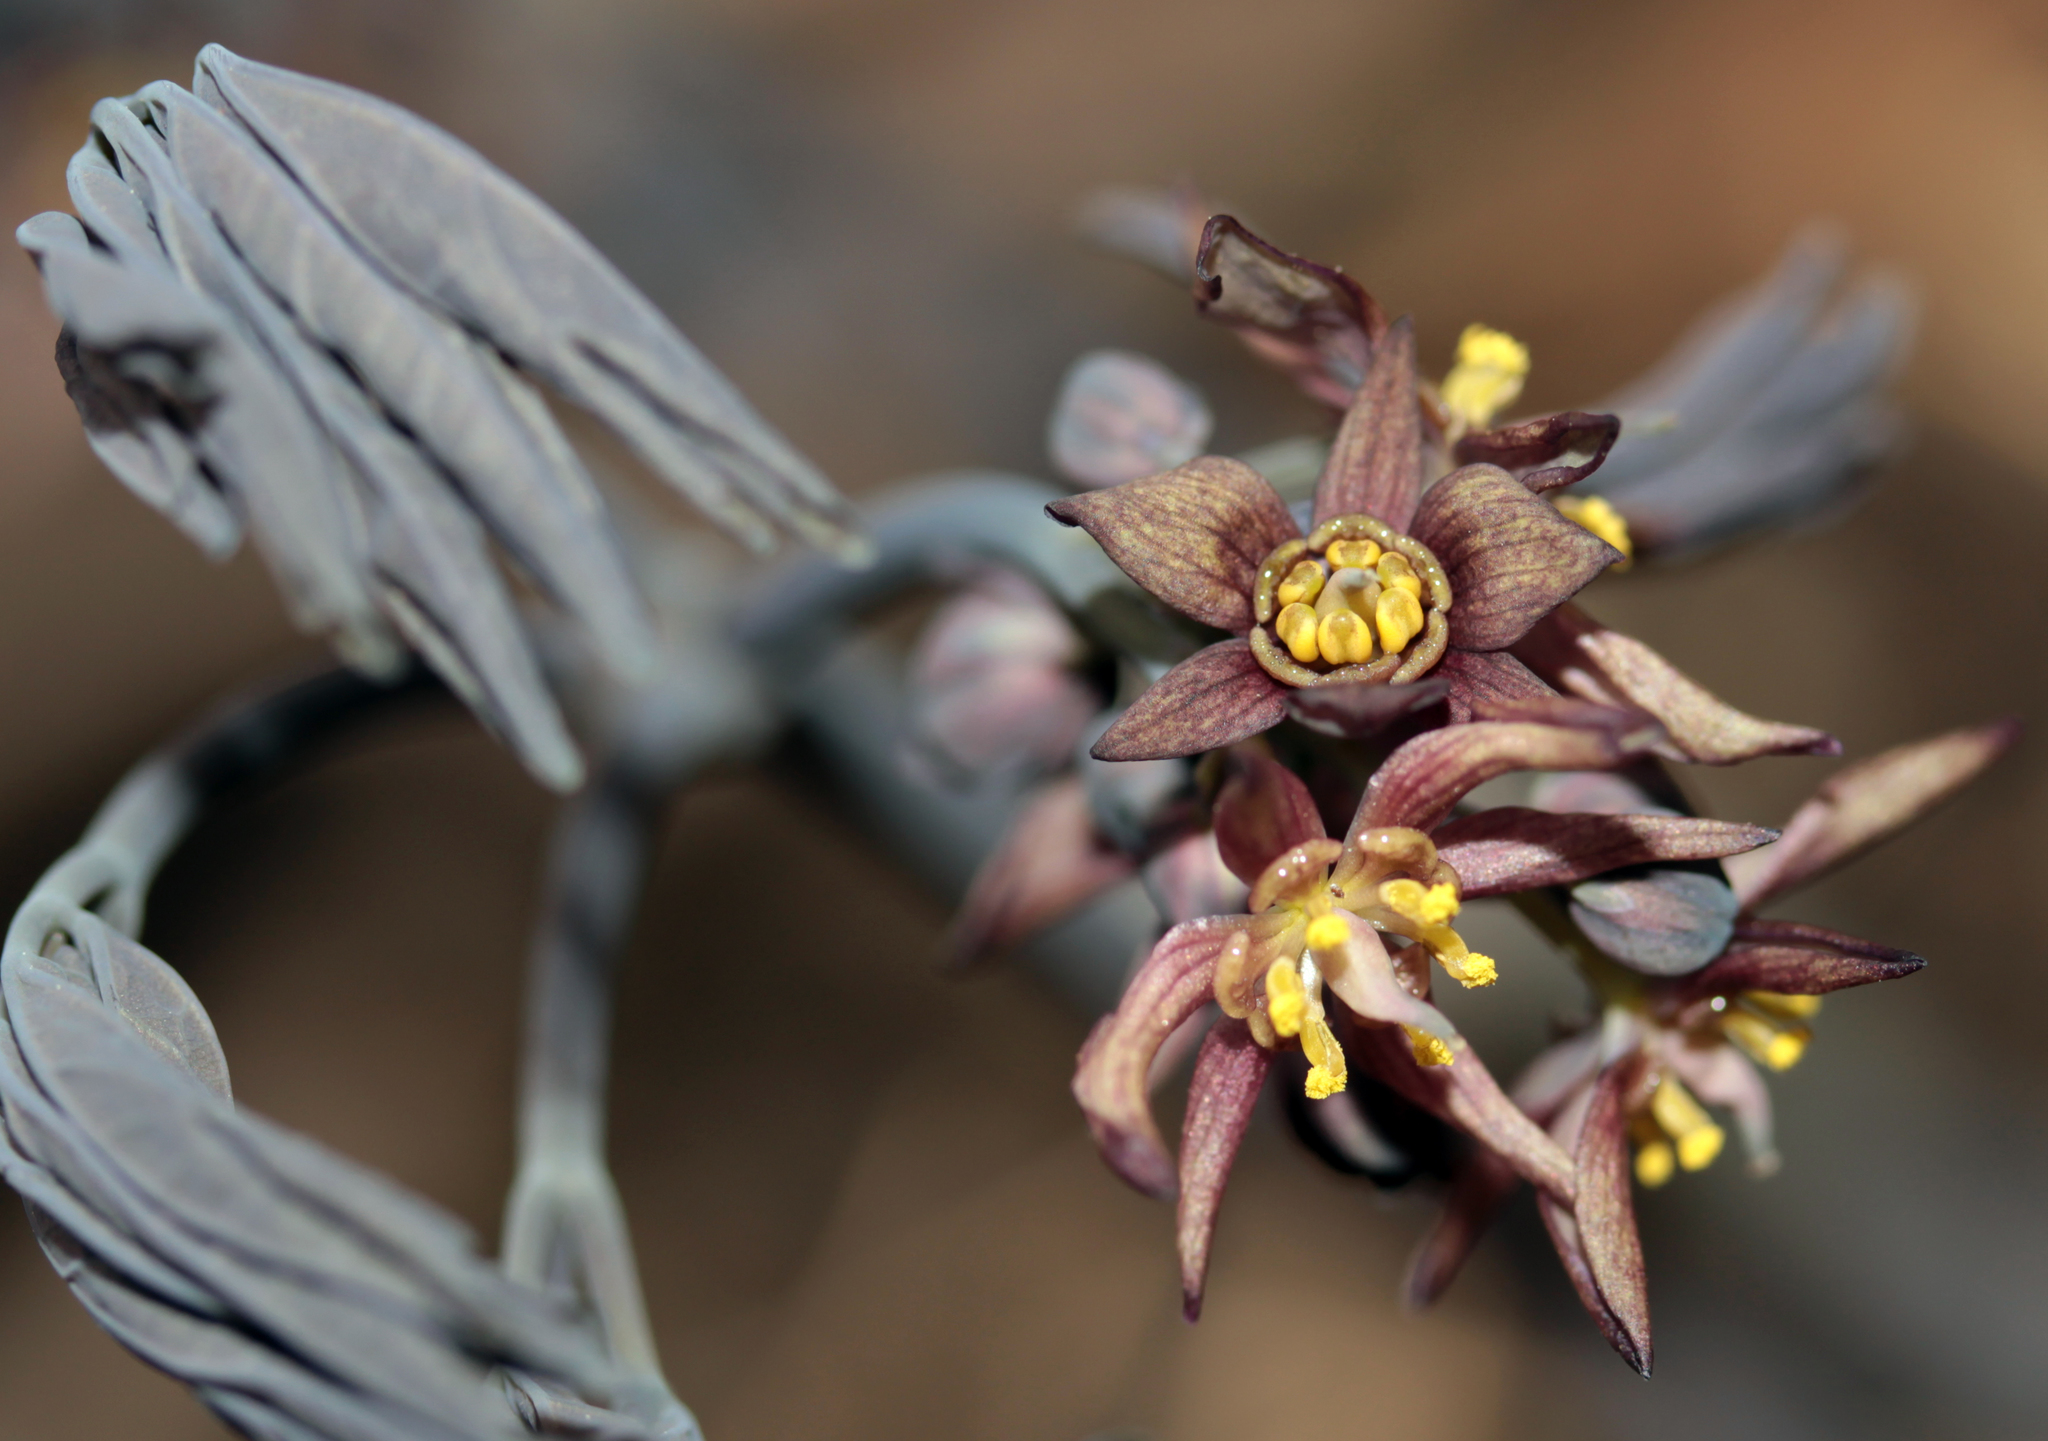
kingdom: Plantae
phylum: Tracheophyta
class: Magnoliopsida
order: Ranunculales
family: Berberidaceae
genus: Caulophyllum
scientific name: Caulophyllum giganteum
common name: Blue cohosh
